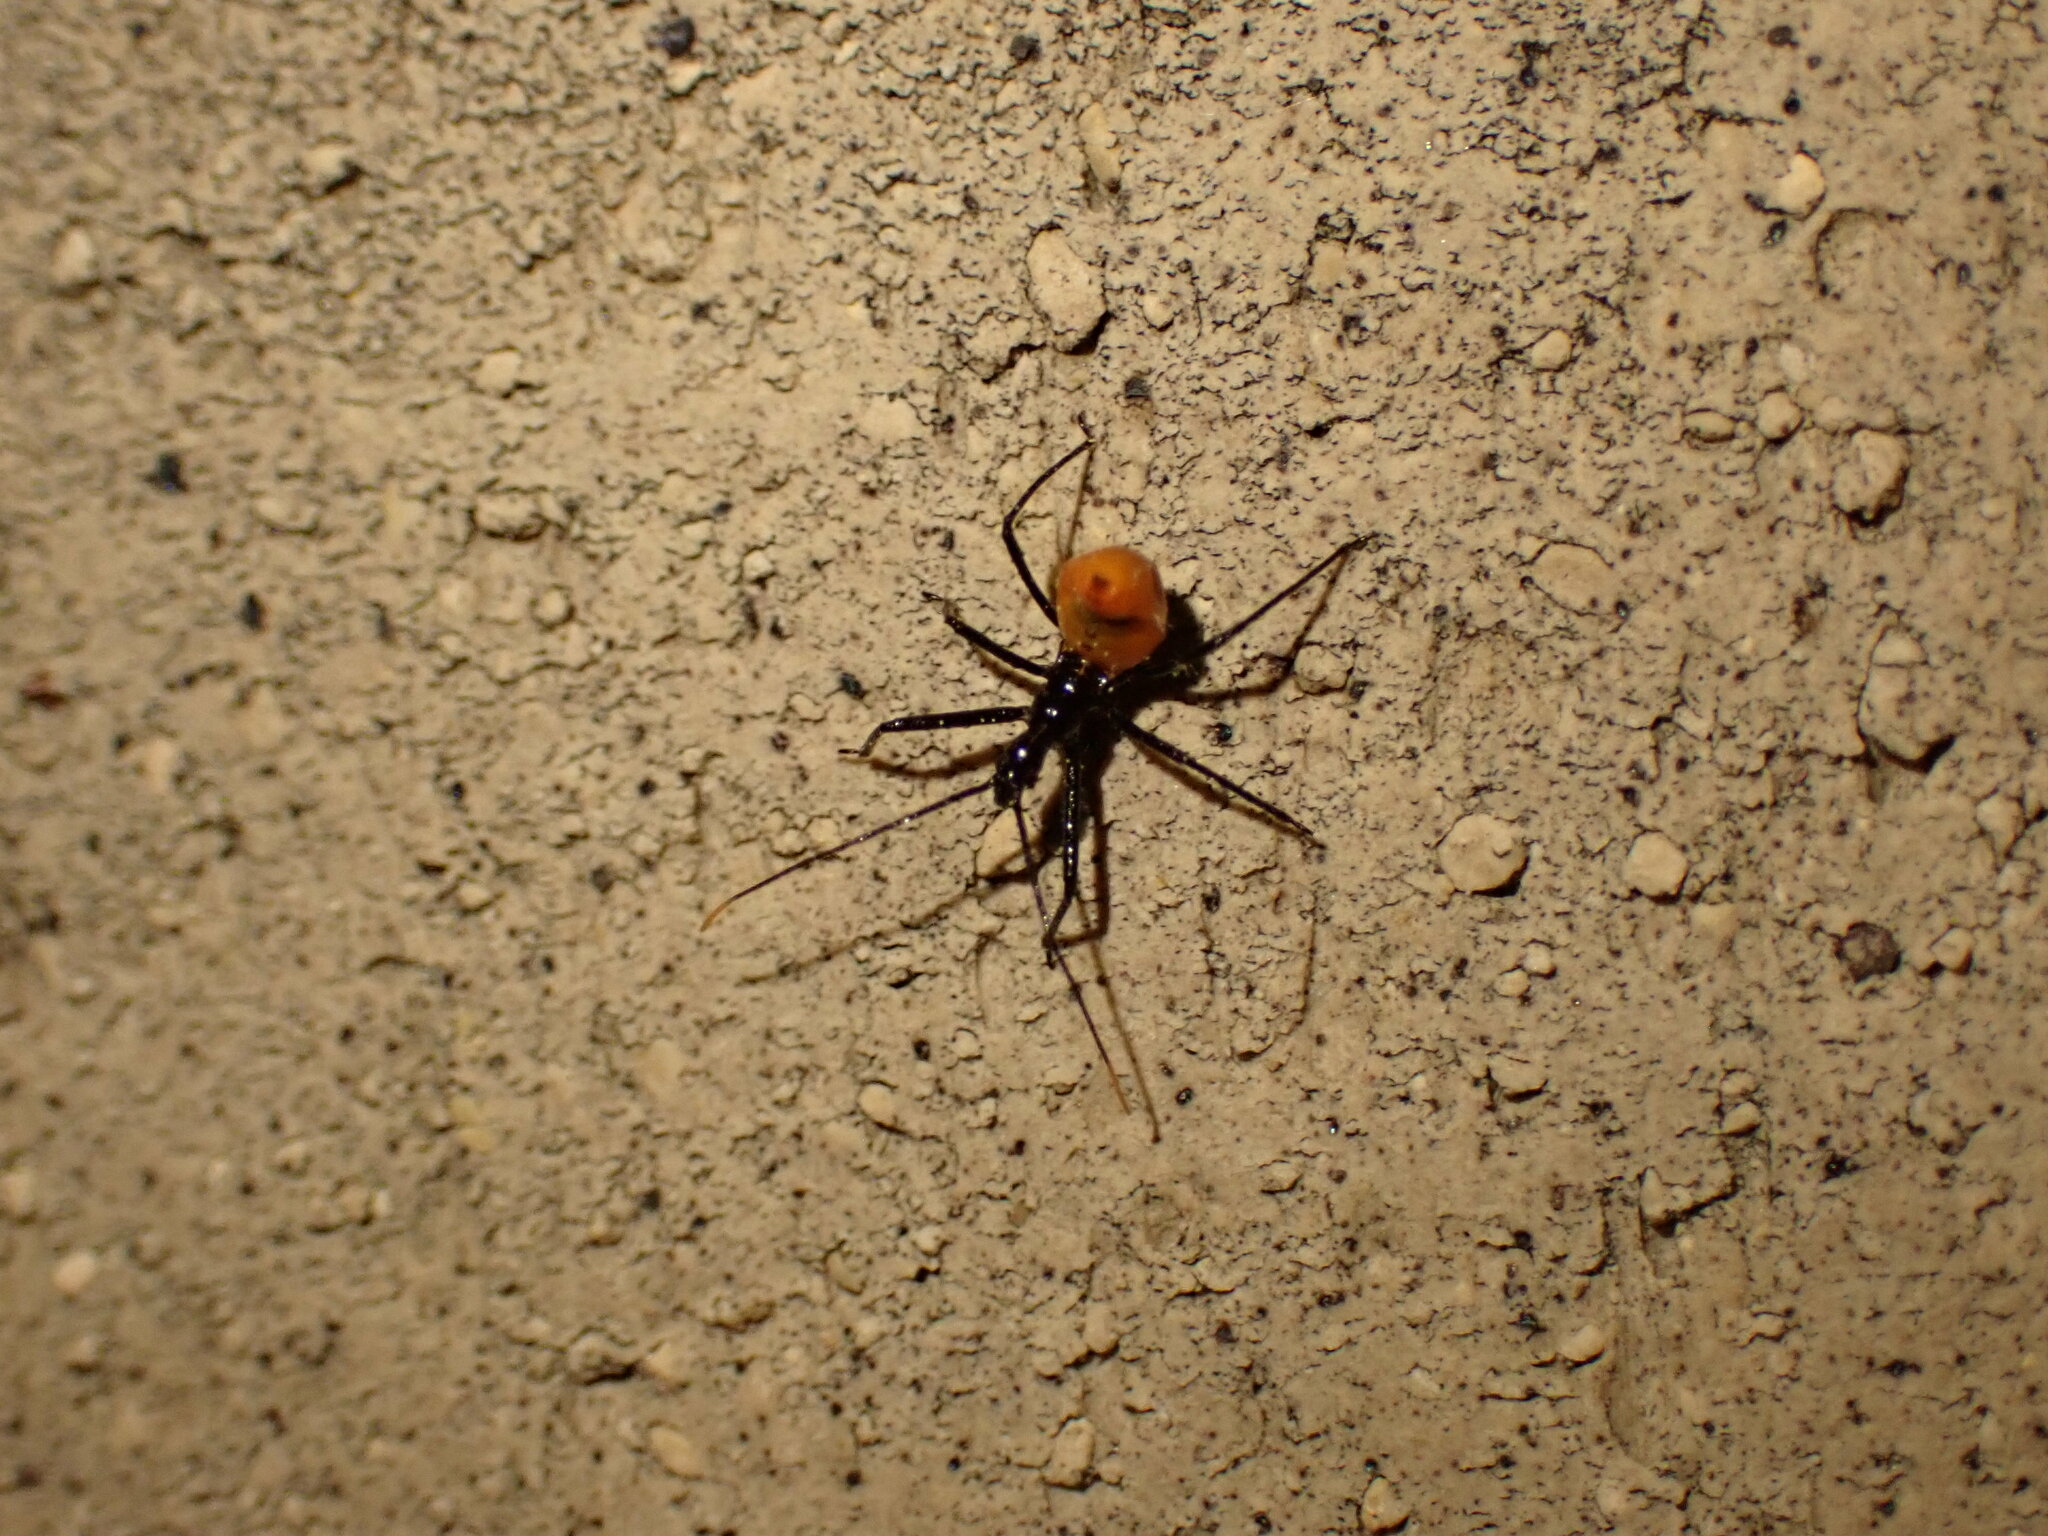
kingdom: Animalia
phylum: Arthropoda
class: Insecta
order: Hemiptera
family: Reduviidae
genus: Arilus
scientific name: Arilus cristatus
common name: North american wheel bug
